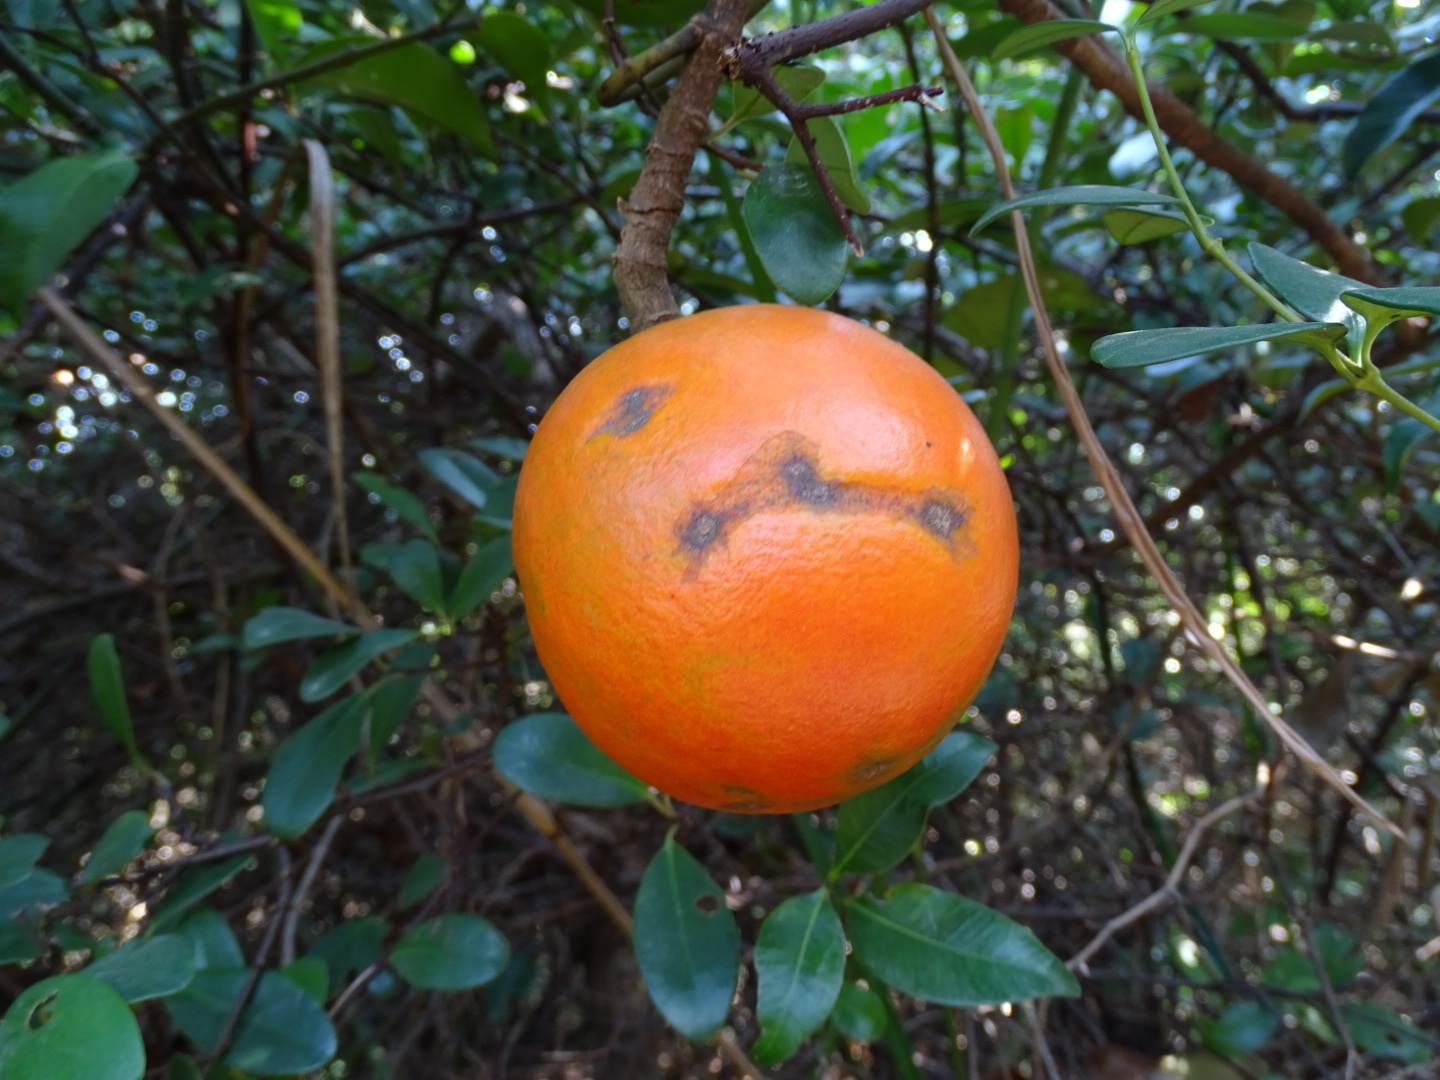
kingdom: Plantae
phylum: Tracheophyta
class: Magnoliopsida
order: Gentianales
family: Apocynaceae
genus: Melodinus
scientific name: Melodinus suaveolens
